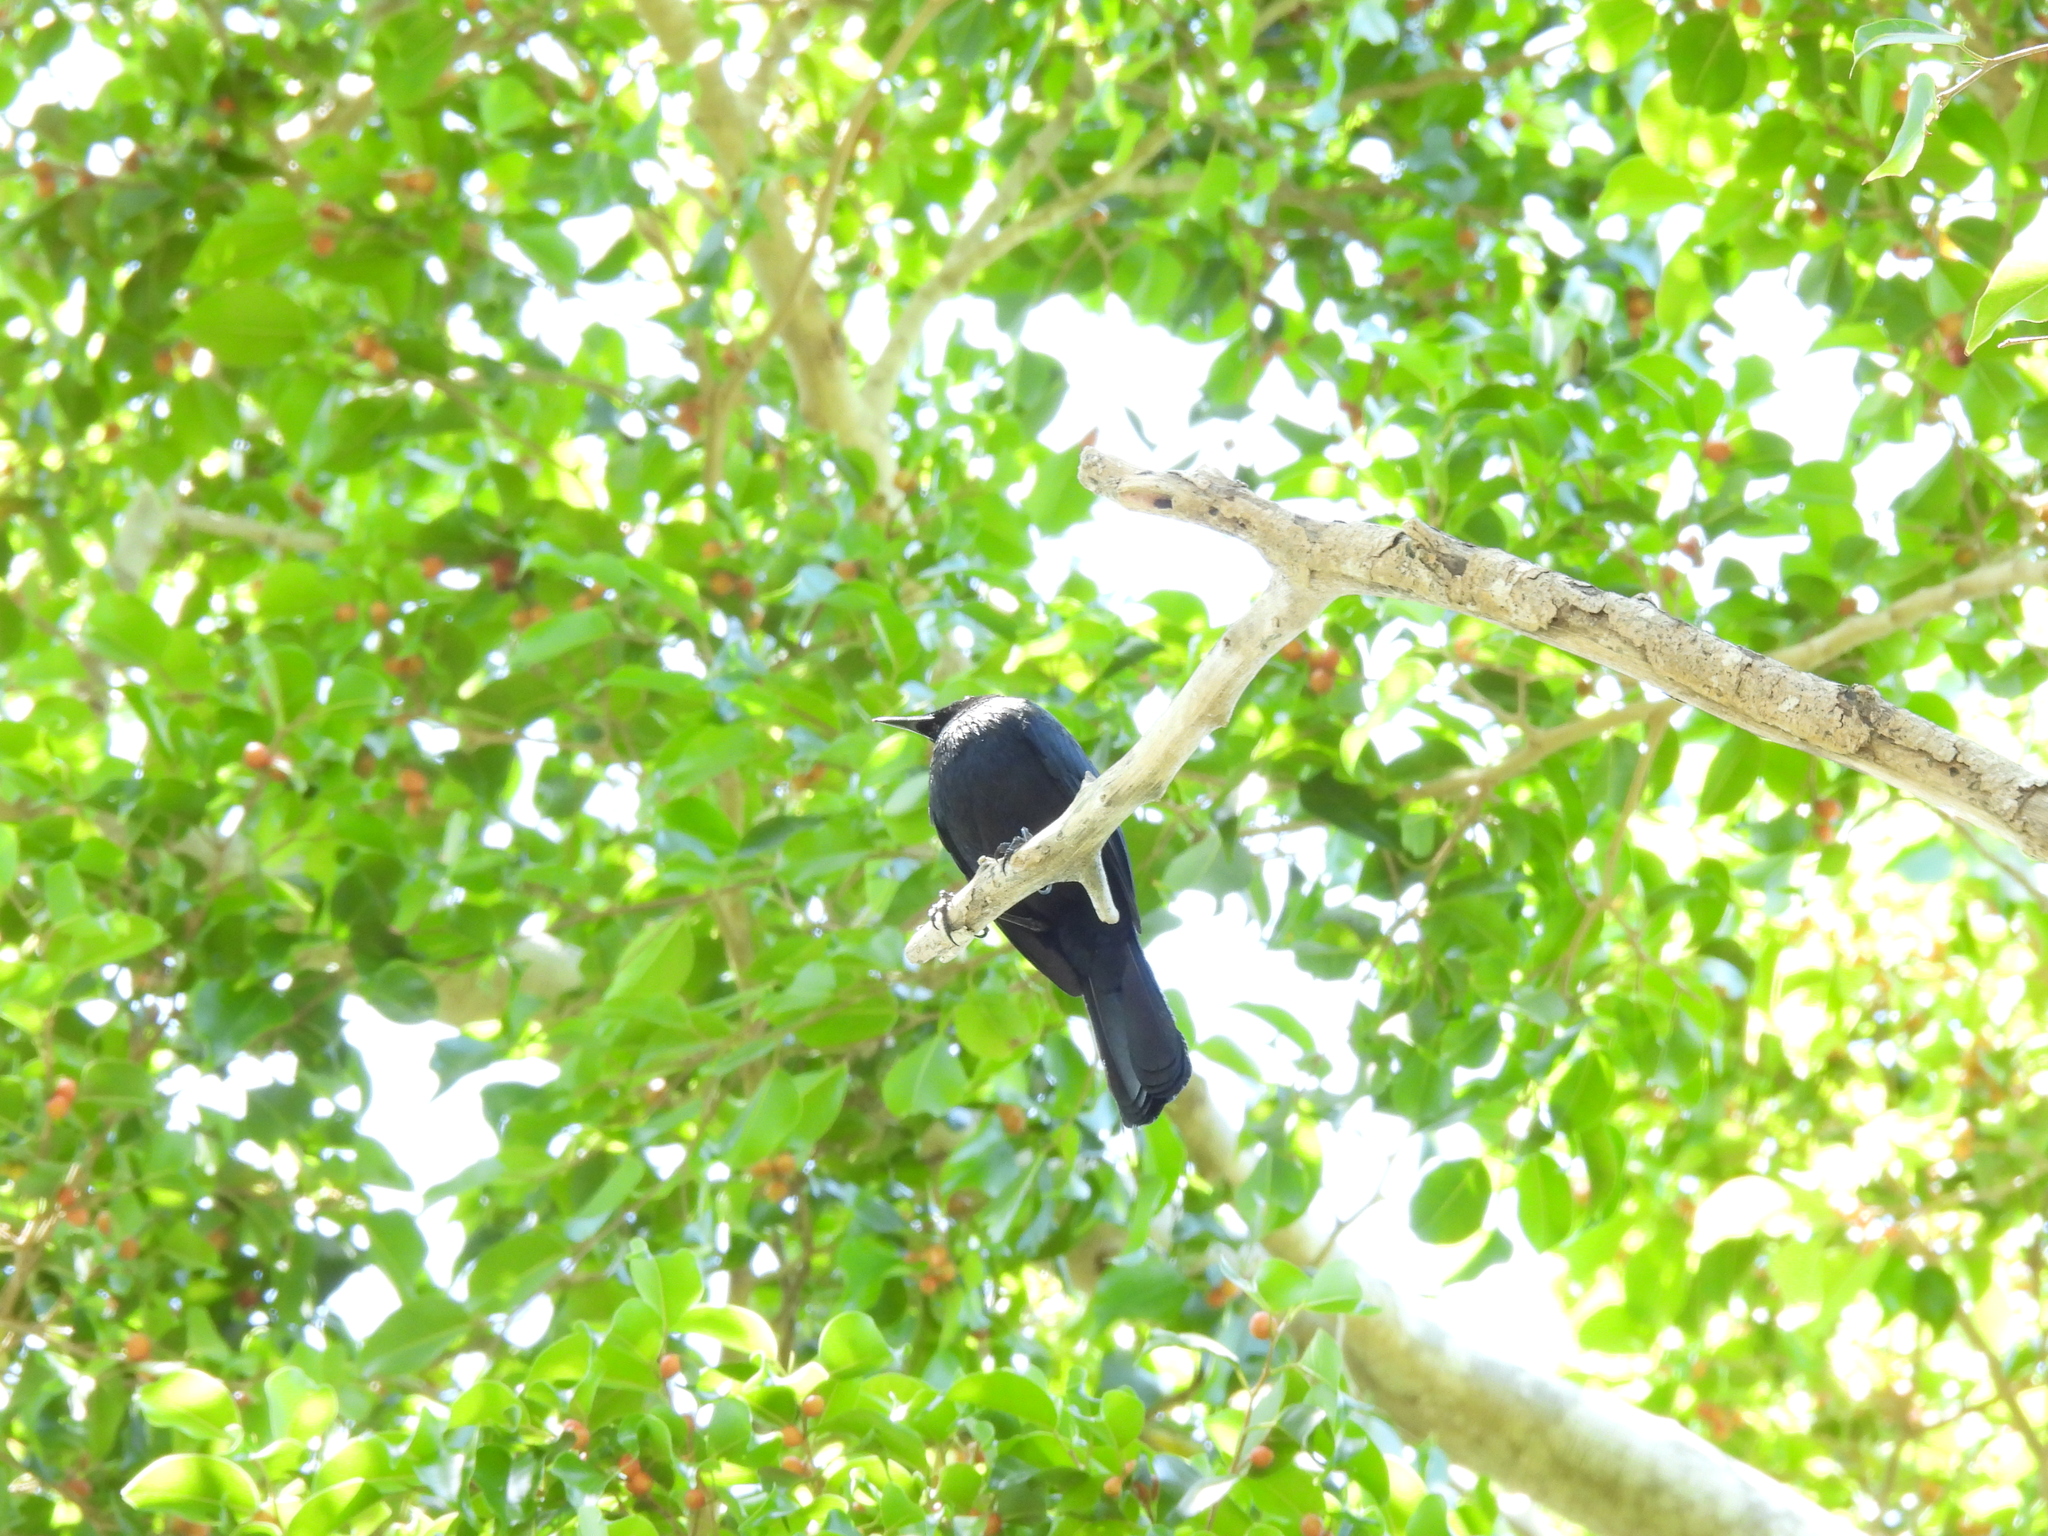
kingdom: Animalia
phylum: Chordata
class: Aves
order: Passeriformes
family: Mimidae
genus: Melanoptila
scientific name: Melanoptila glabrirostris
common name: Black catbird
